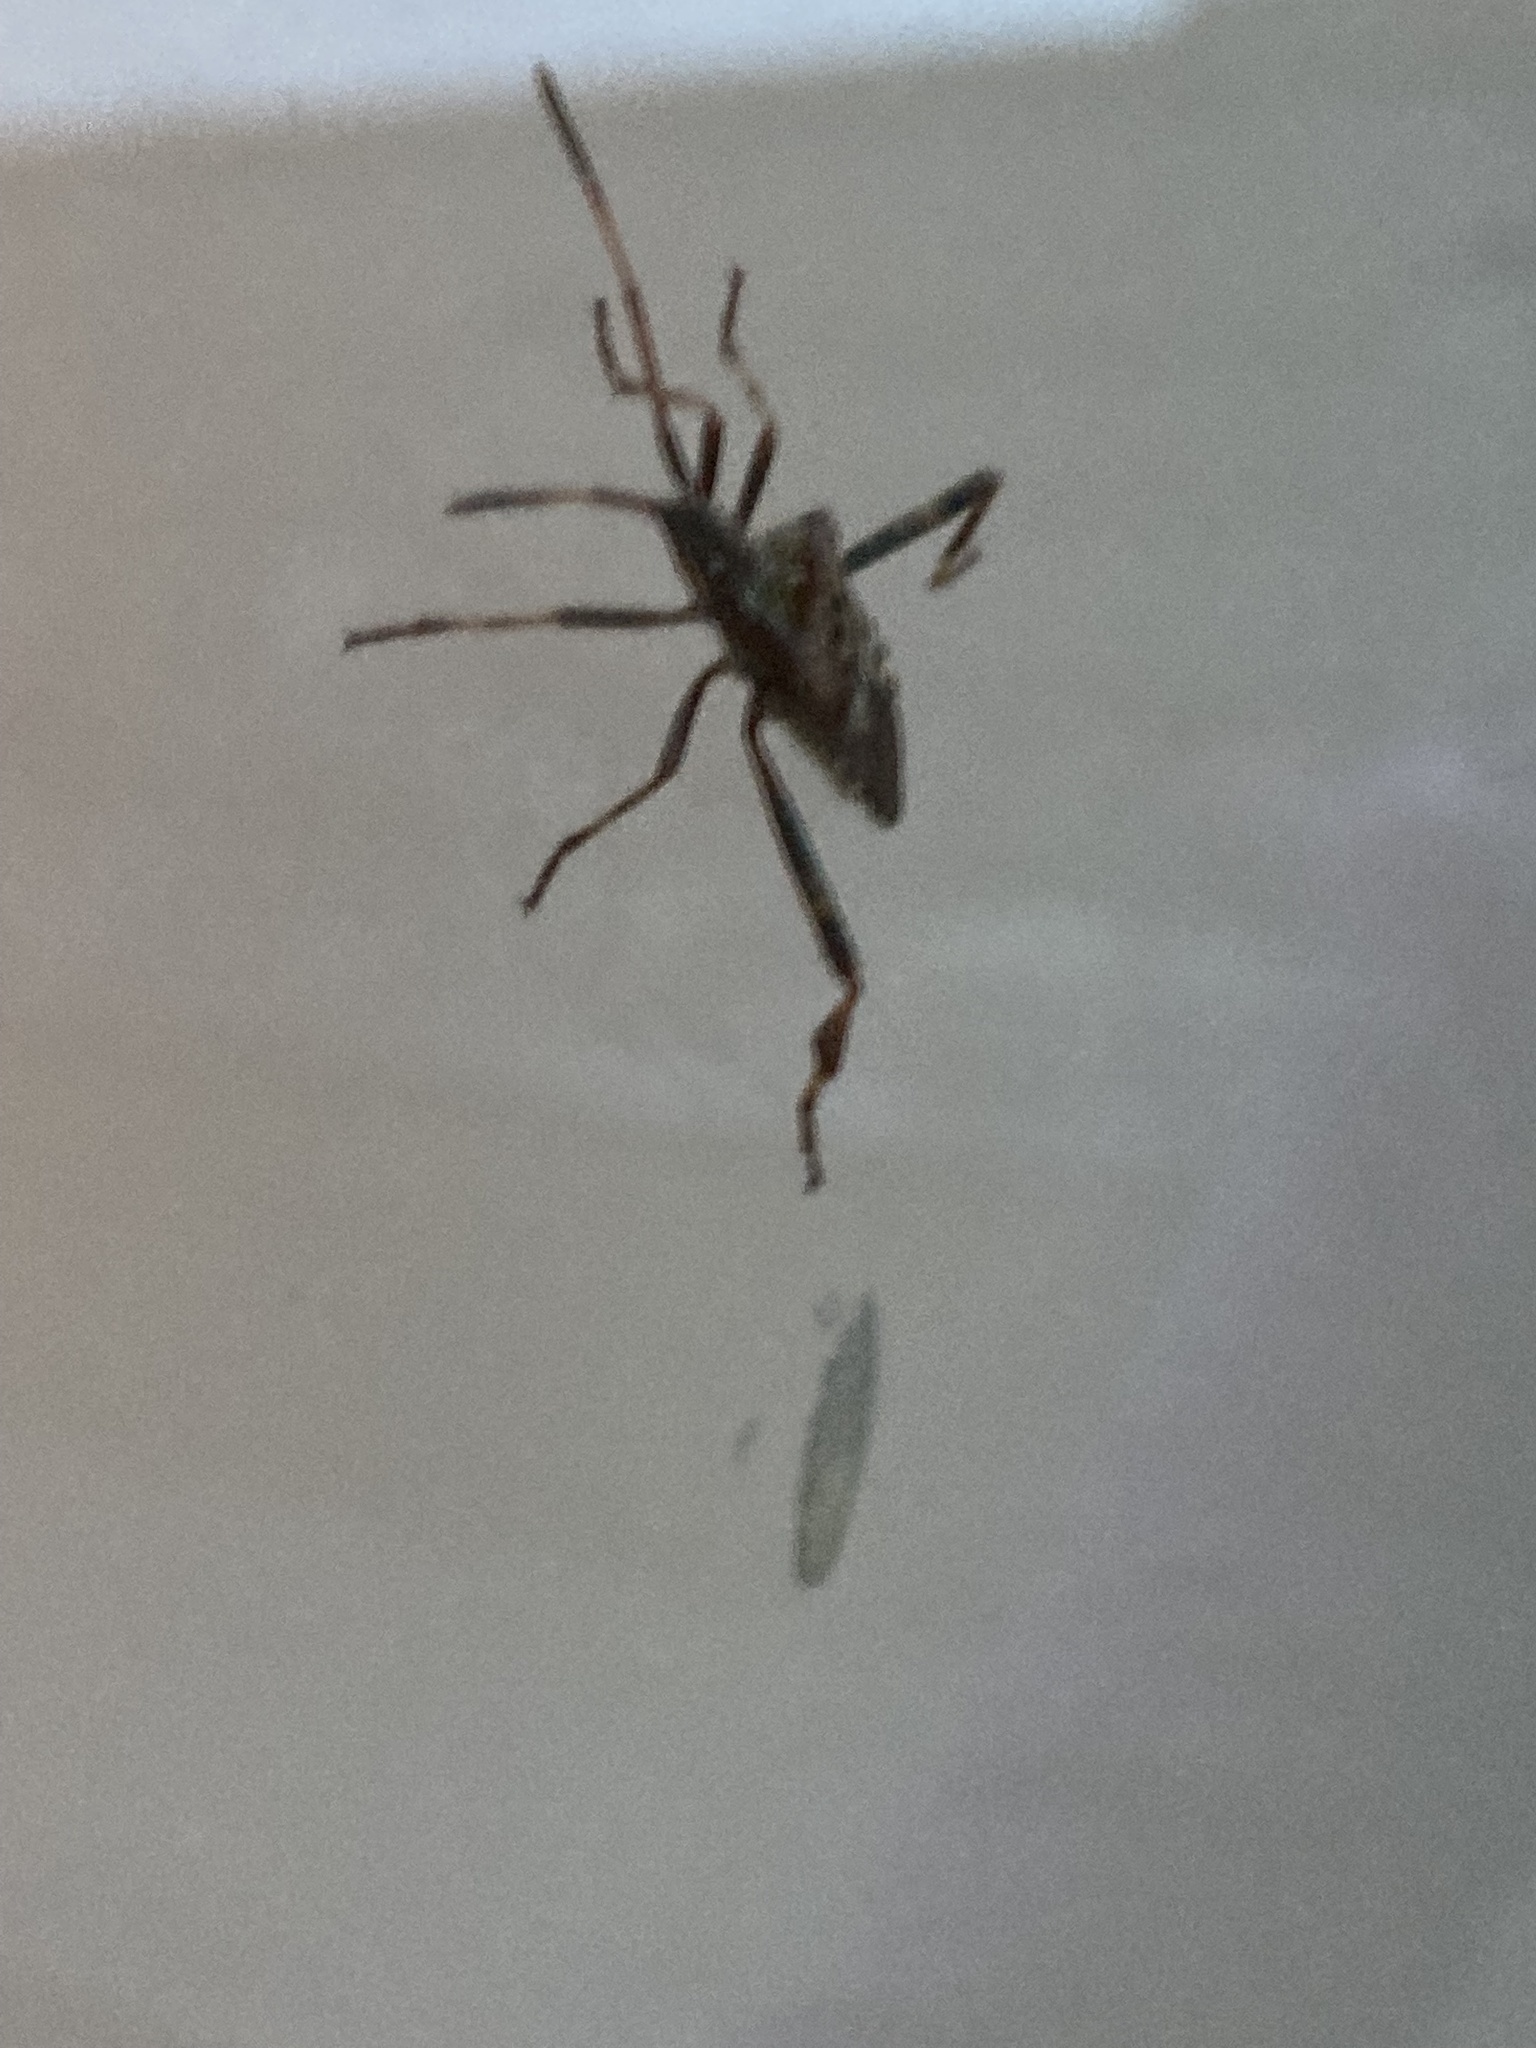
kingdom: Animalia
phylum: Arthropoda
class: Insecta
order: Hemiptera
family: Coreidae
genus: Leptoglossus
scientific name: Leptoglossus occidentalis
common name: Western conifer-seed bug
